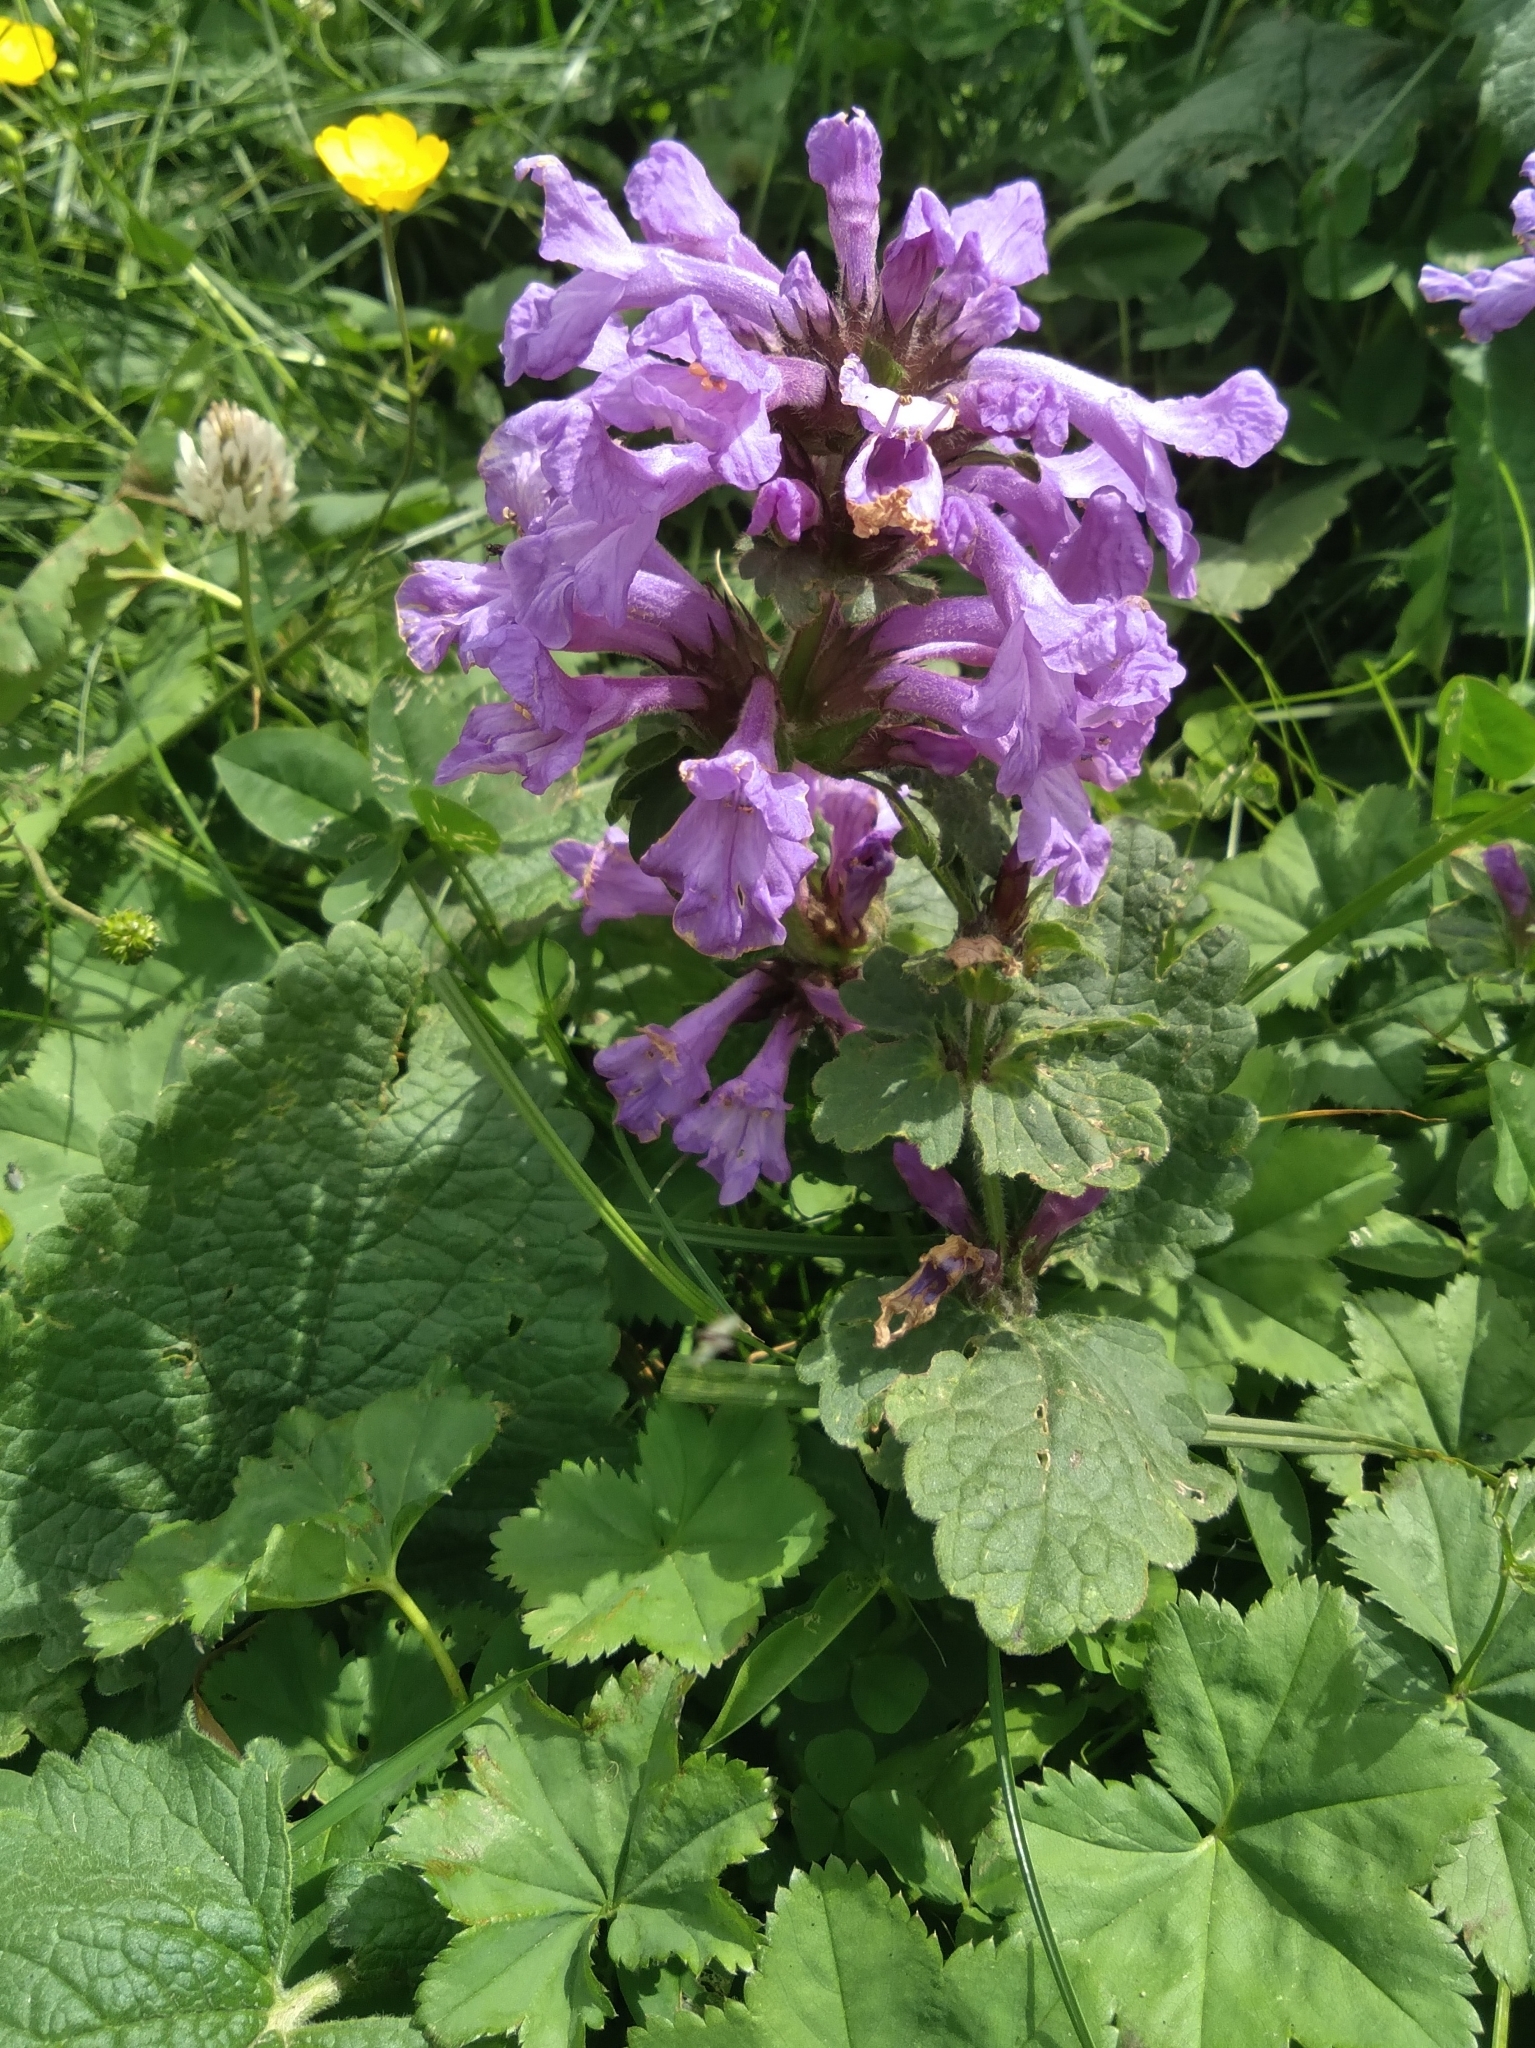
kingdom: Plantae
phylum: Tracheophyta
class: Magnoliopsida
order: Lamiales
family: Lamiaceae
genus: Betonica
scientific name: Betonica macrantha
